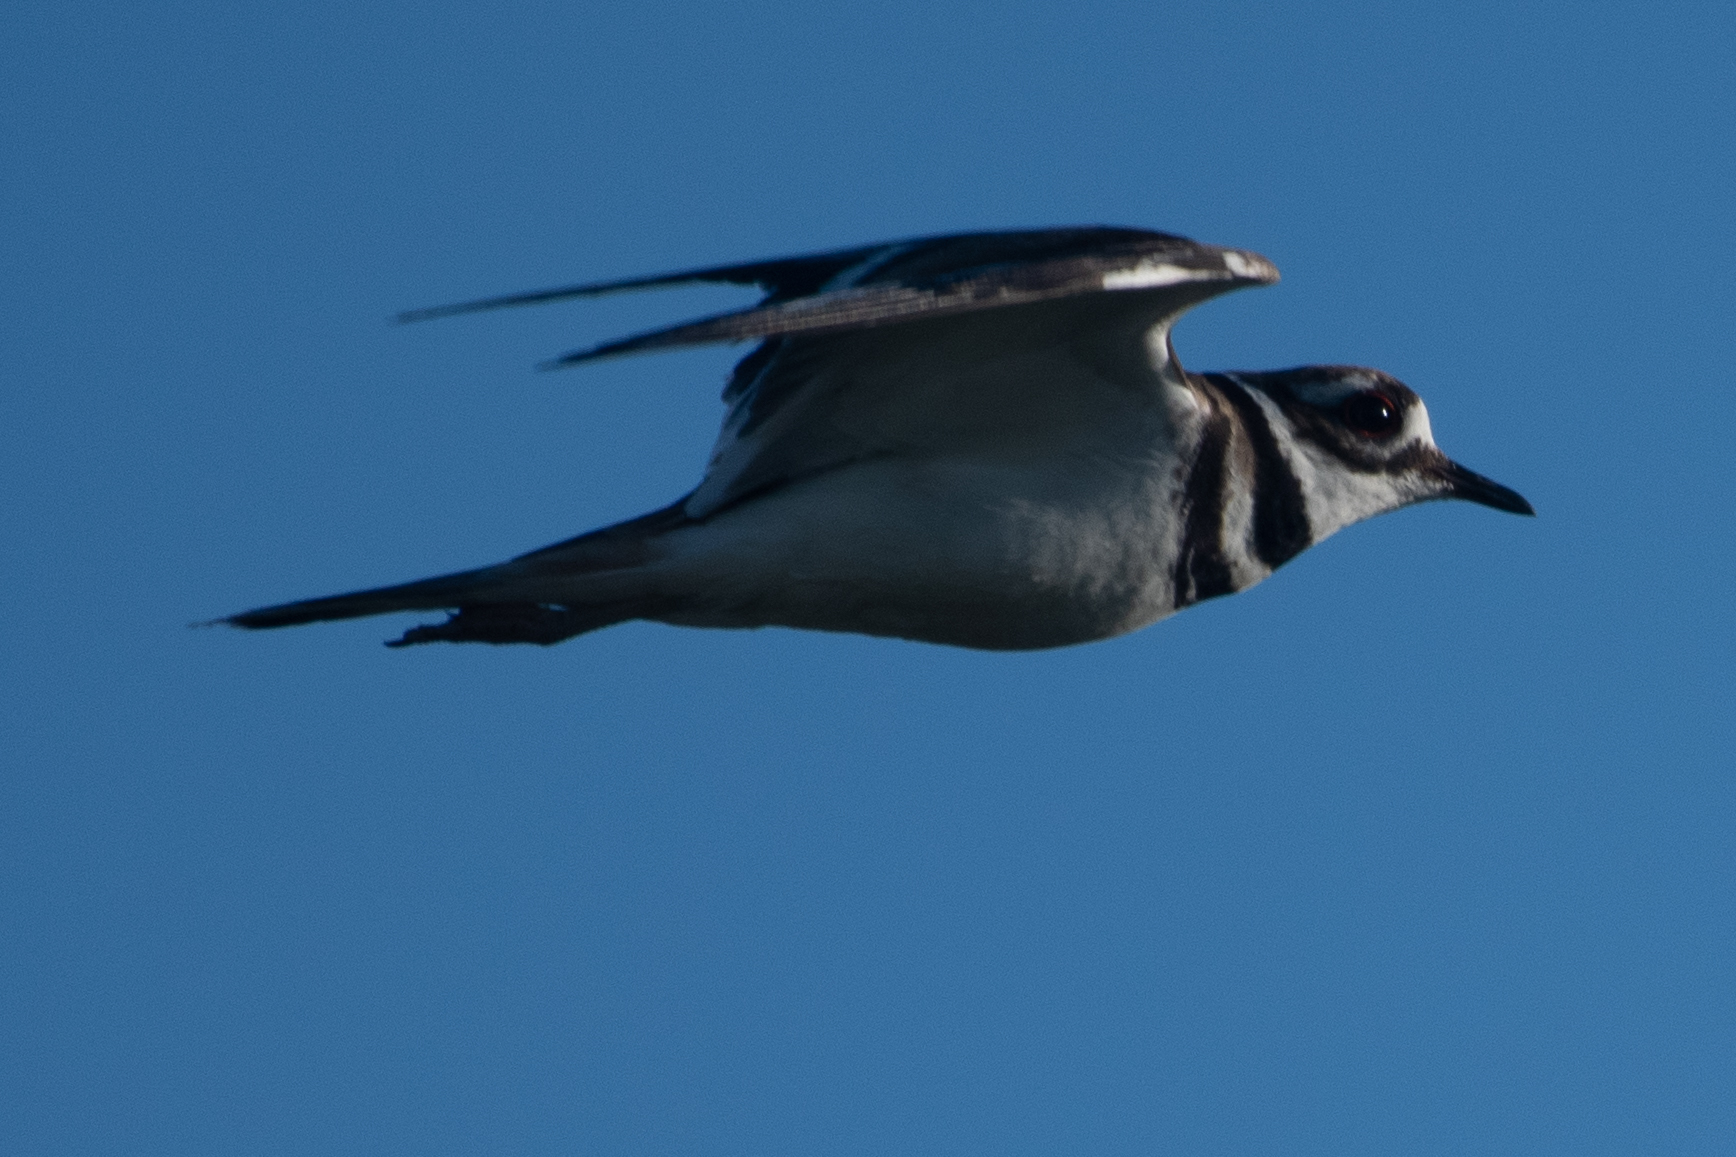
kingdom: Animalia
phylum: Chordata
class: Aves
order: Charadriiformes
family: Charadriidae
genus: Charadrius
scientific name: Charadrius vociferus
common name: Killdeer
